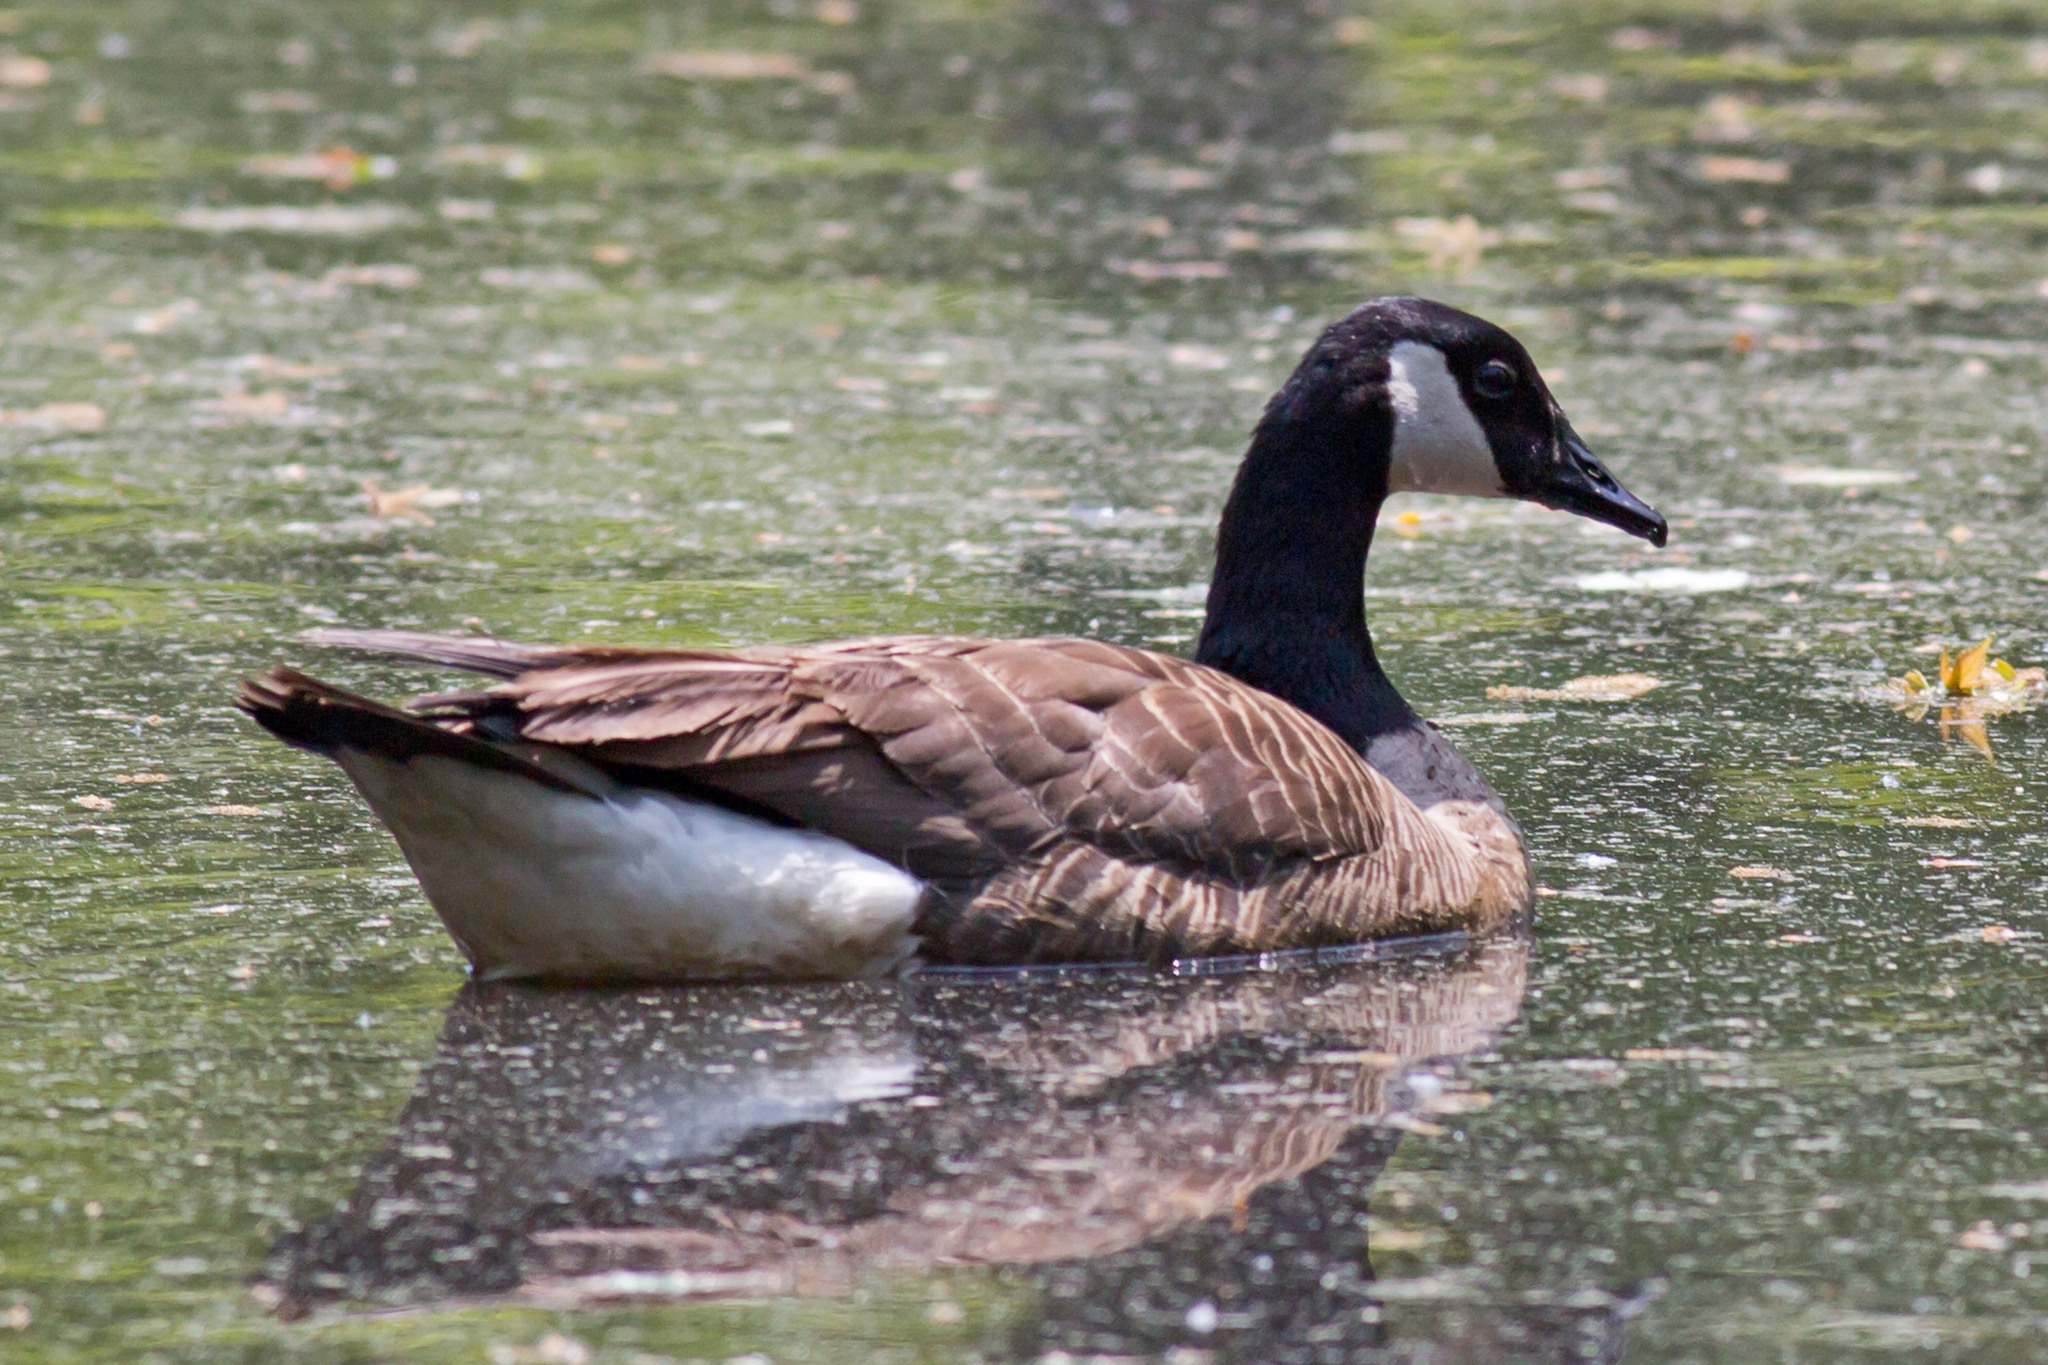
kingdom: Animalia
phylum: Chordata
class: Aves
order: Anseriformes
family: Anatidae
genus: Branta
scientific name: Branta canadensis
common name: Canada goose
